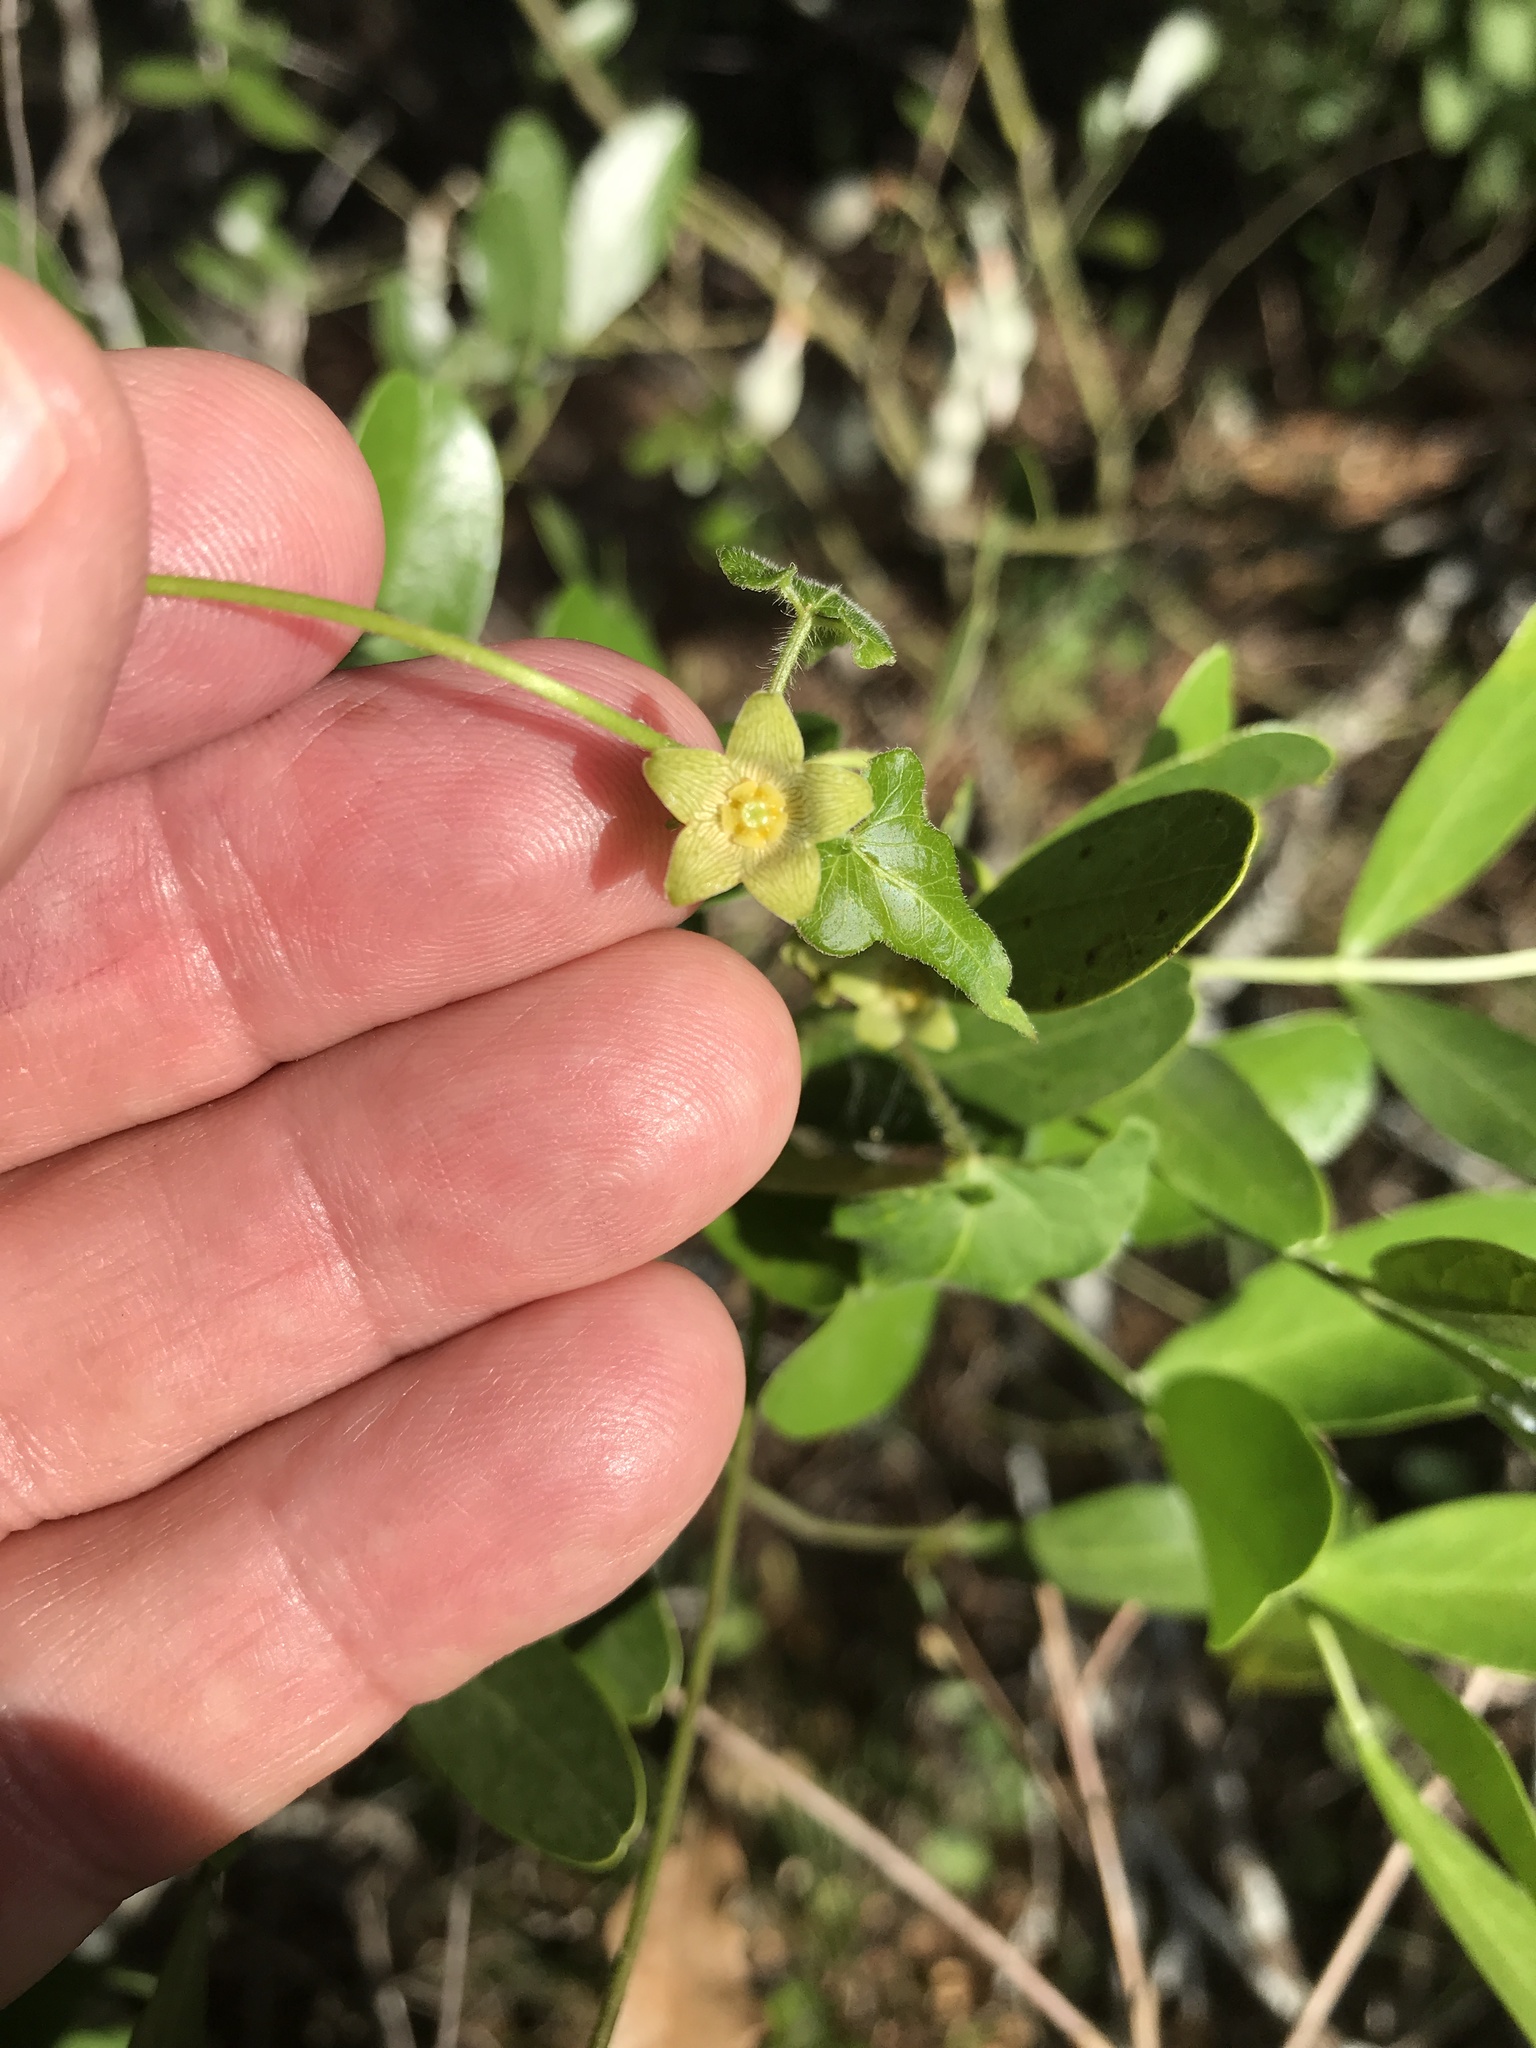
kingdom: Plantae
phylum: Tracheophyta
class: Magnoliopsida
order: Gentianales
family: Apocynaceae
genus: Matelea
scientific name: Matelea edwardsensis
